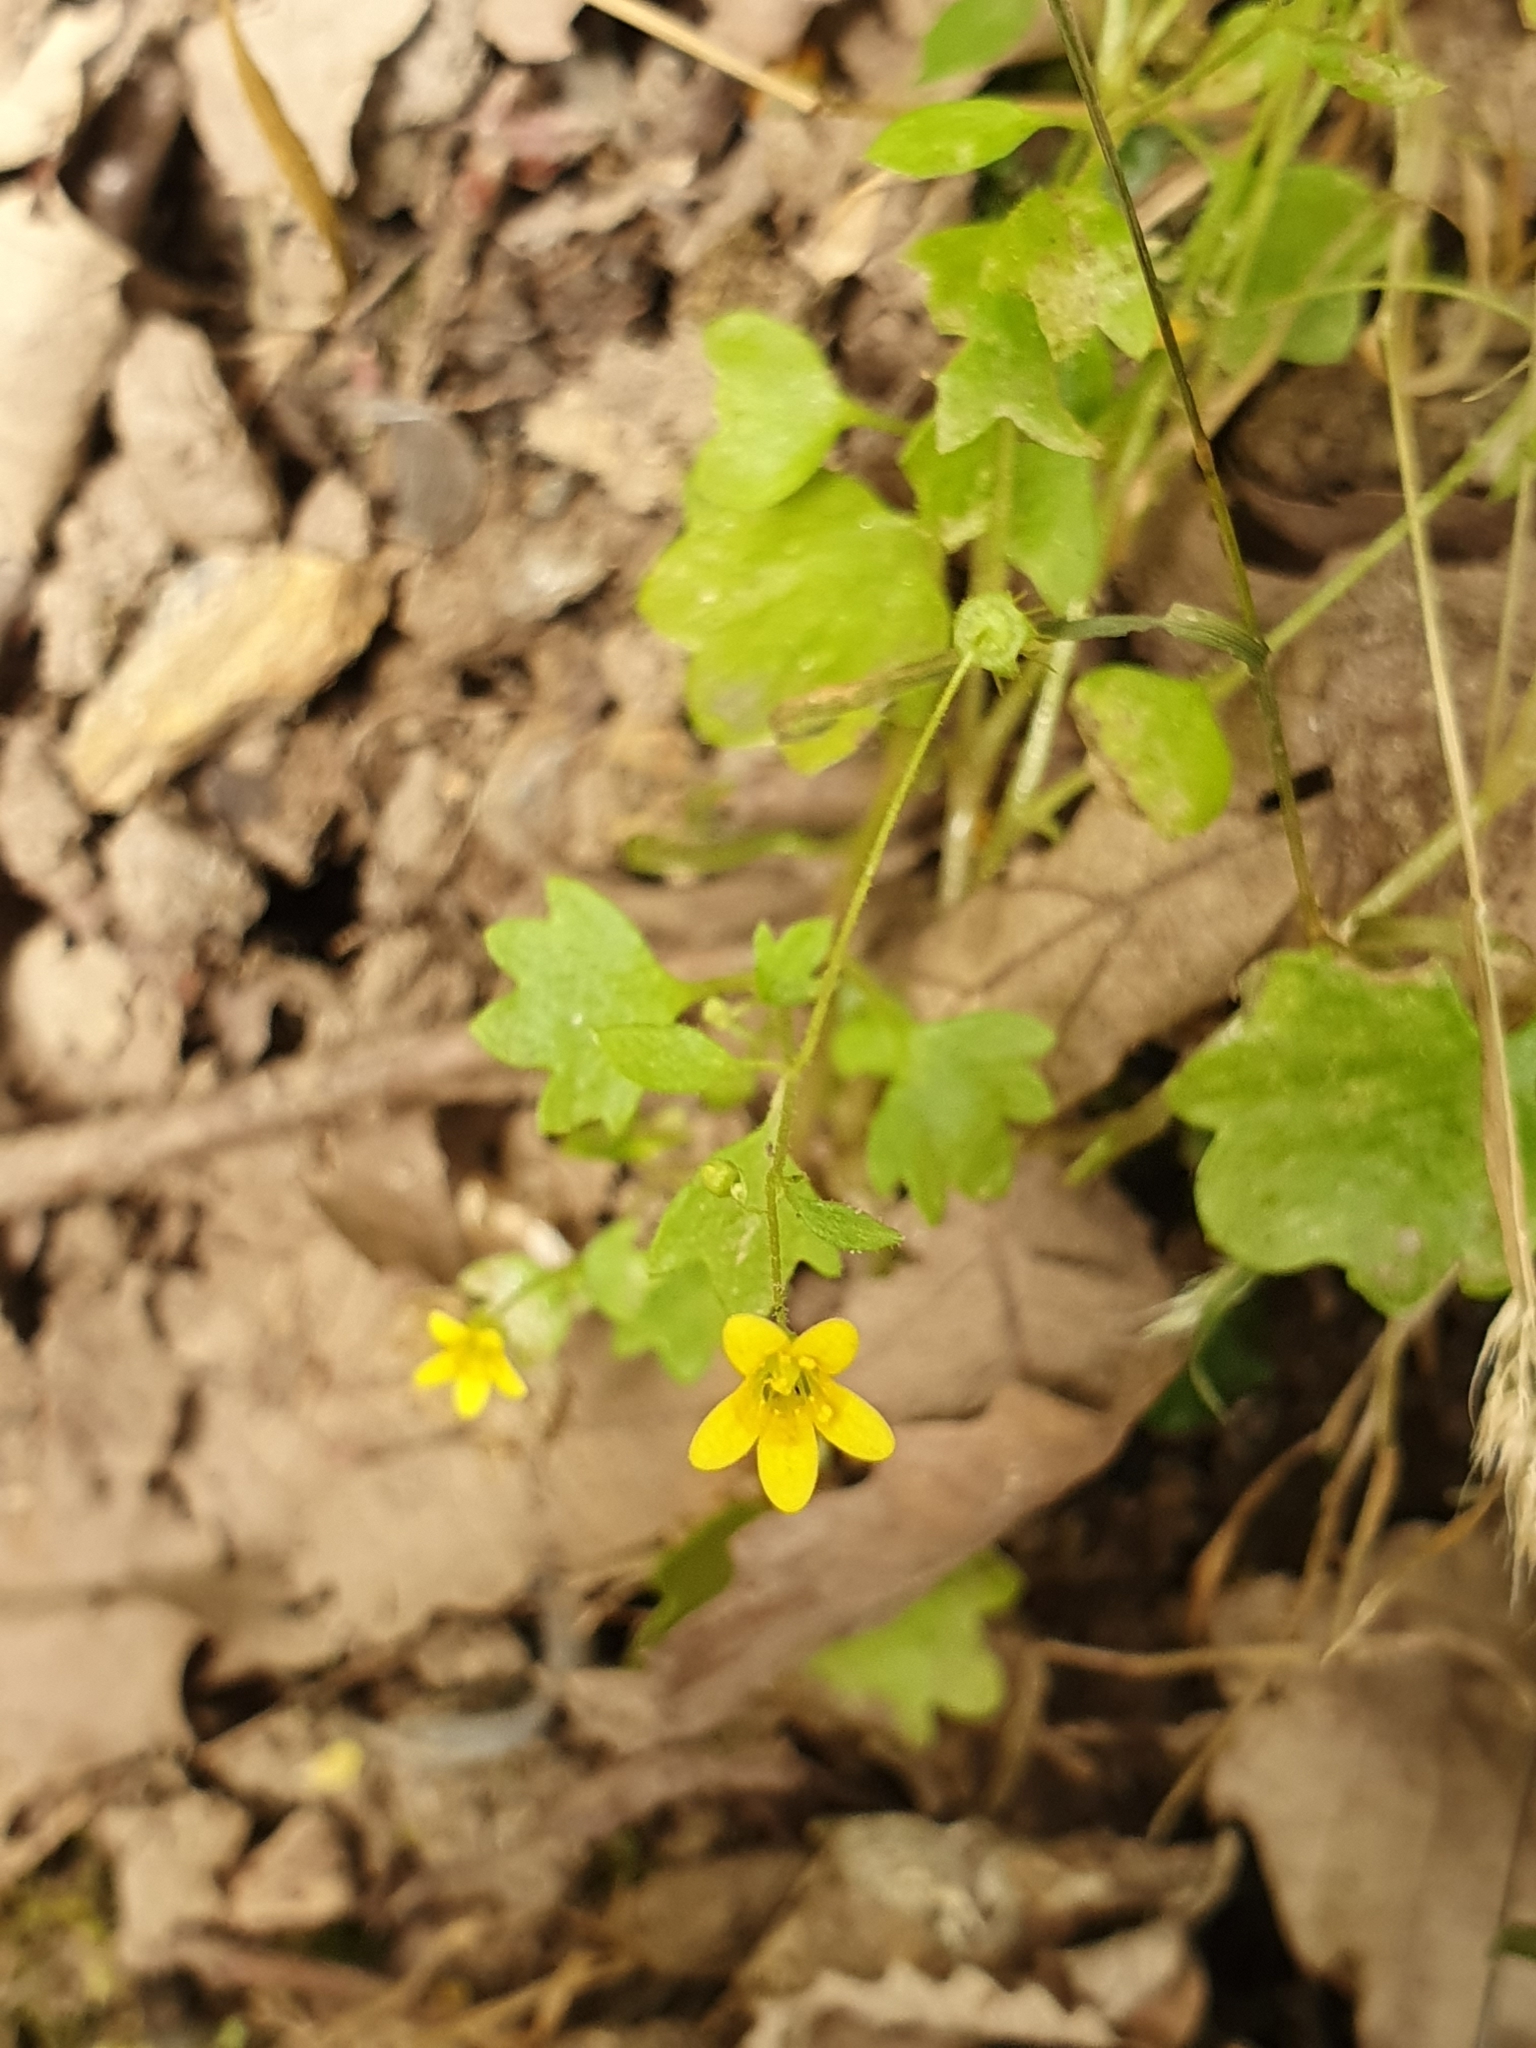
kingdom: Plantae
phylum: Tracheophyta
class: Magnoliopsida
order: Saxifragales
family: Saxifragaceae
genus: Saxifraga
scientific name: Saxifraga cymbalaria
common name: Celandine saxifrage
